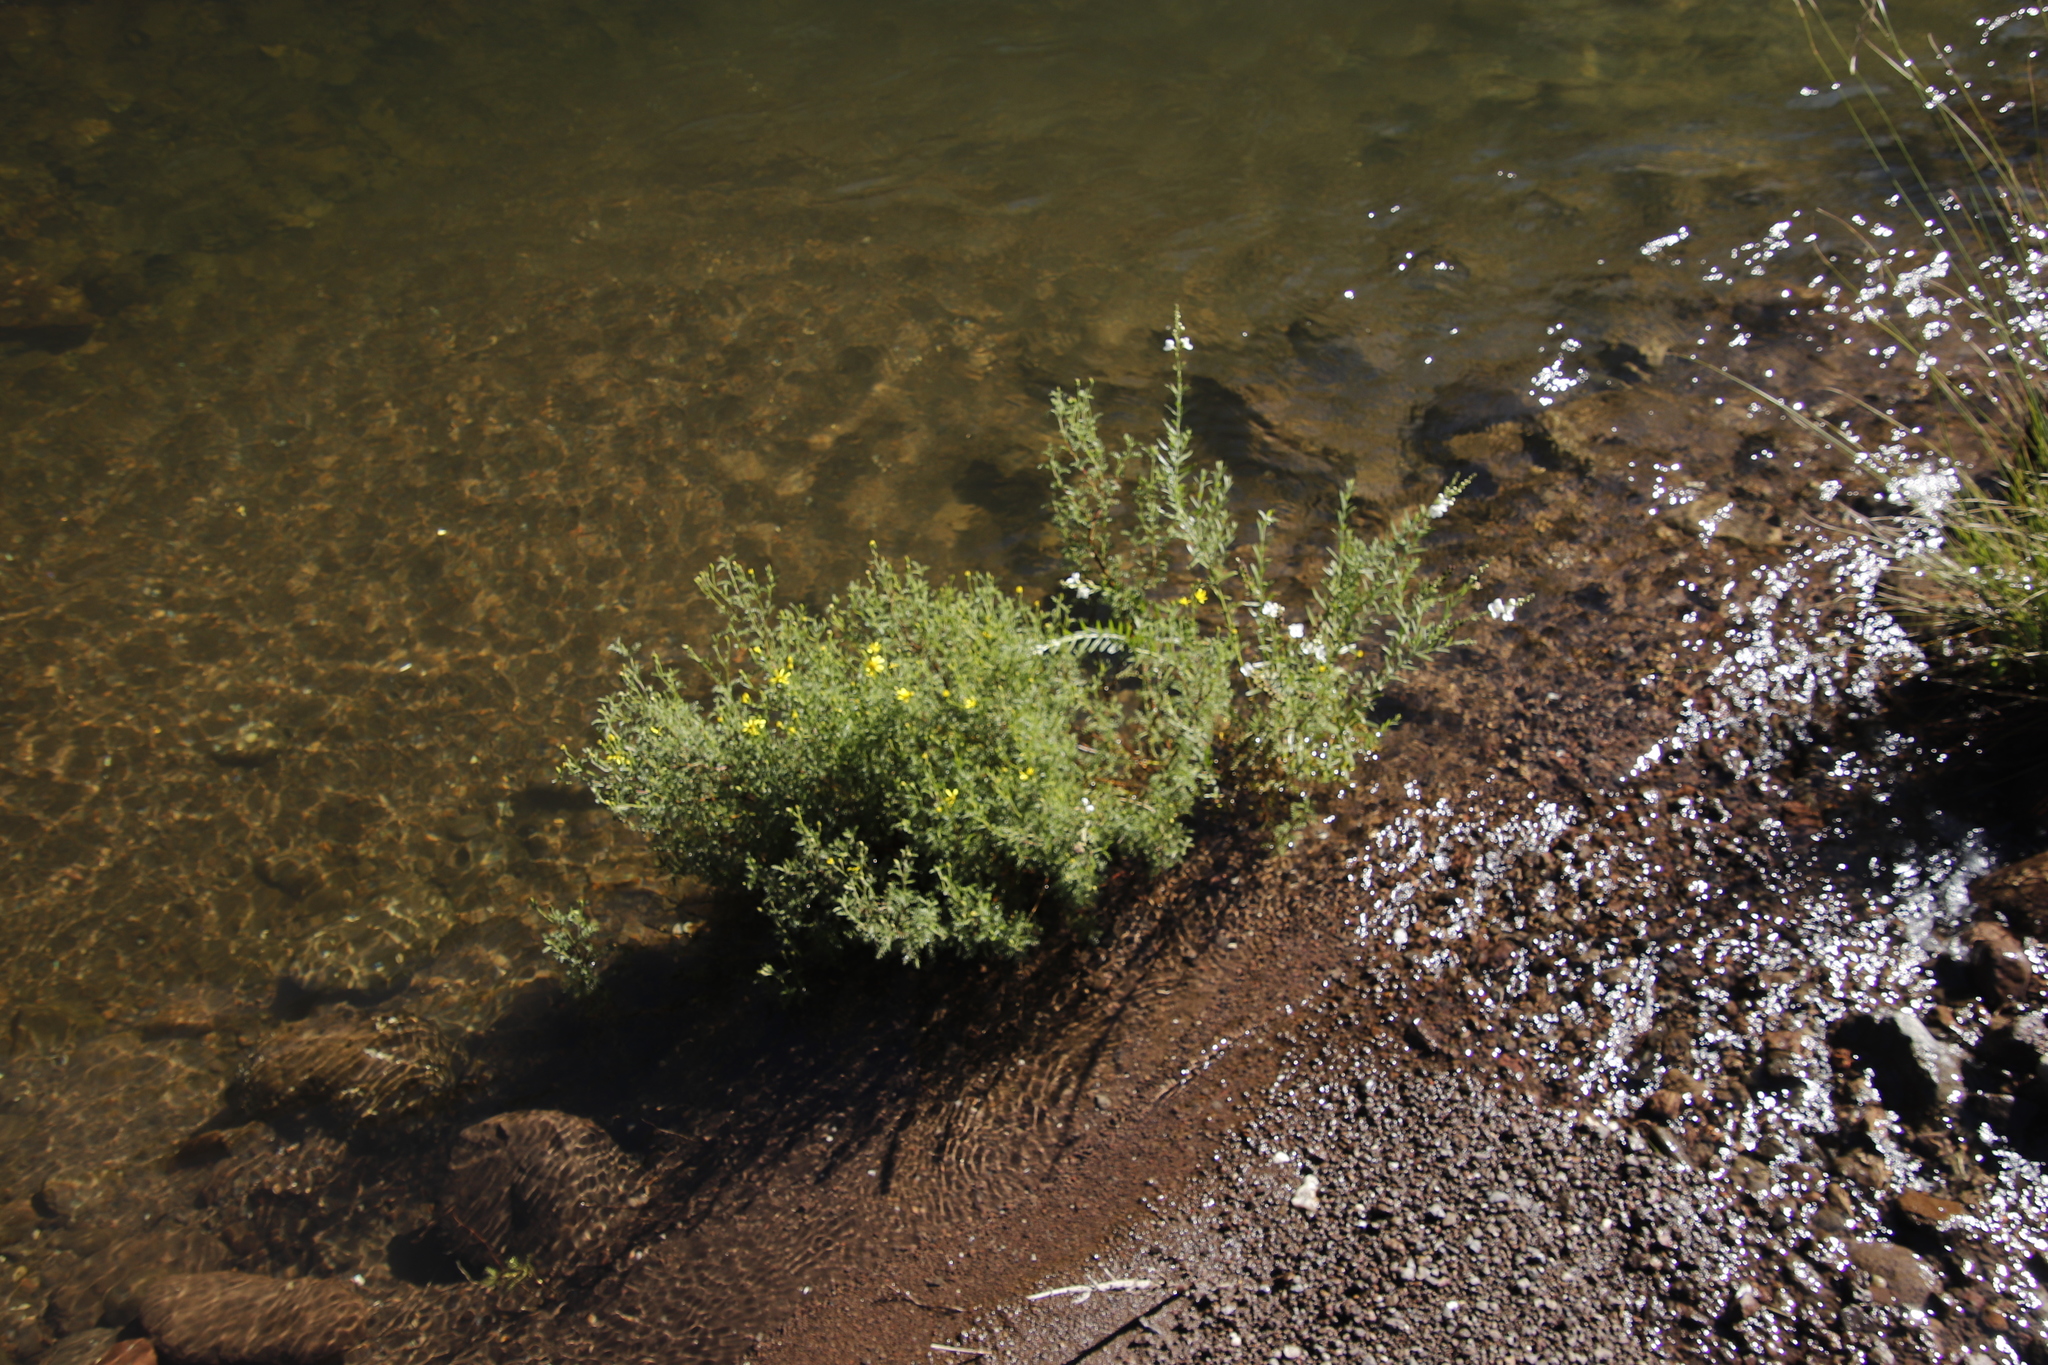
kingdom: Plantae
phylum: Tracheophyta
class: Magnoliopsida
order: Lamiales
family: Scrophulariaceae
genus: Buddleja
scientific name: Buddleja virgata
